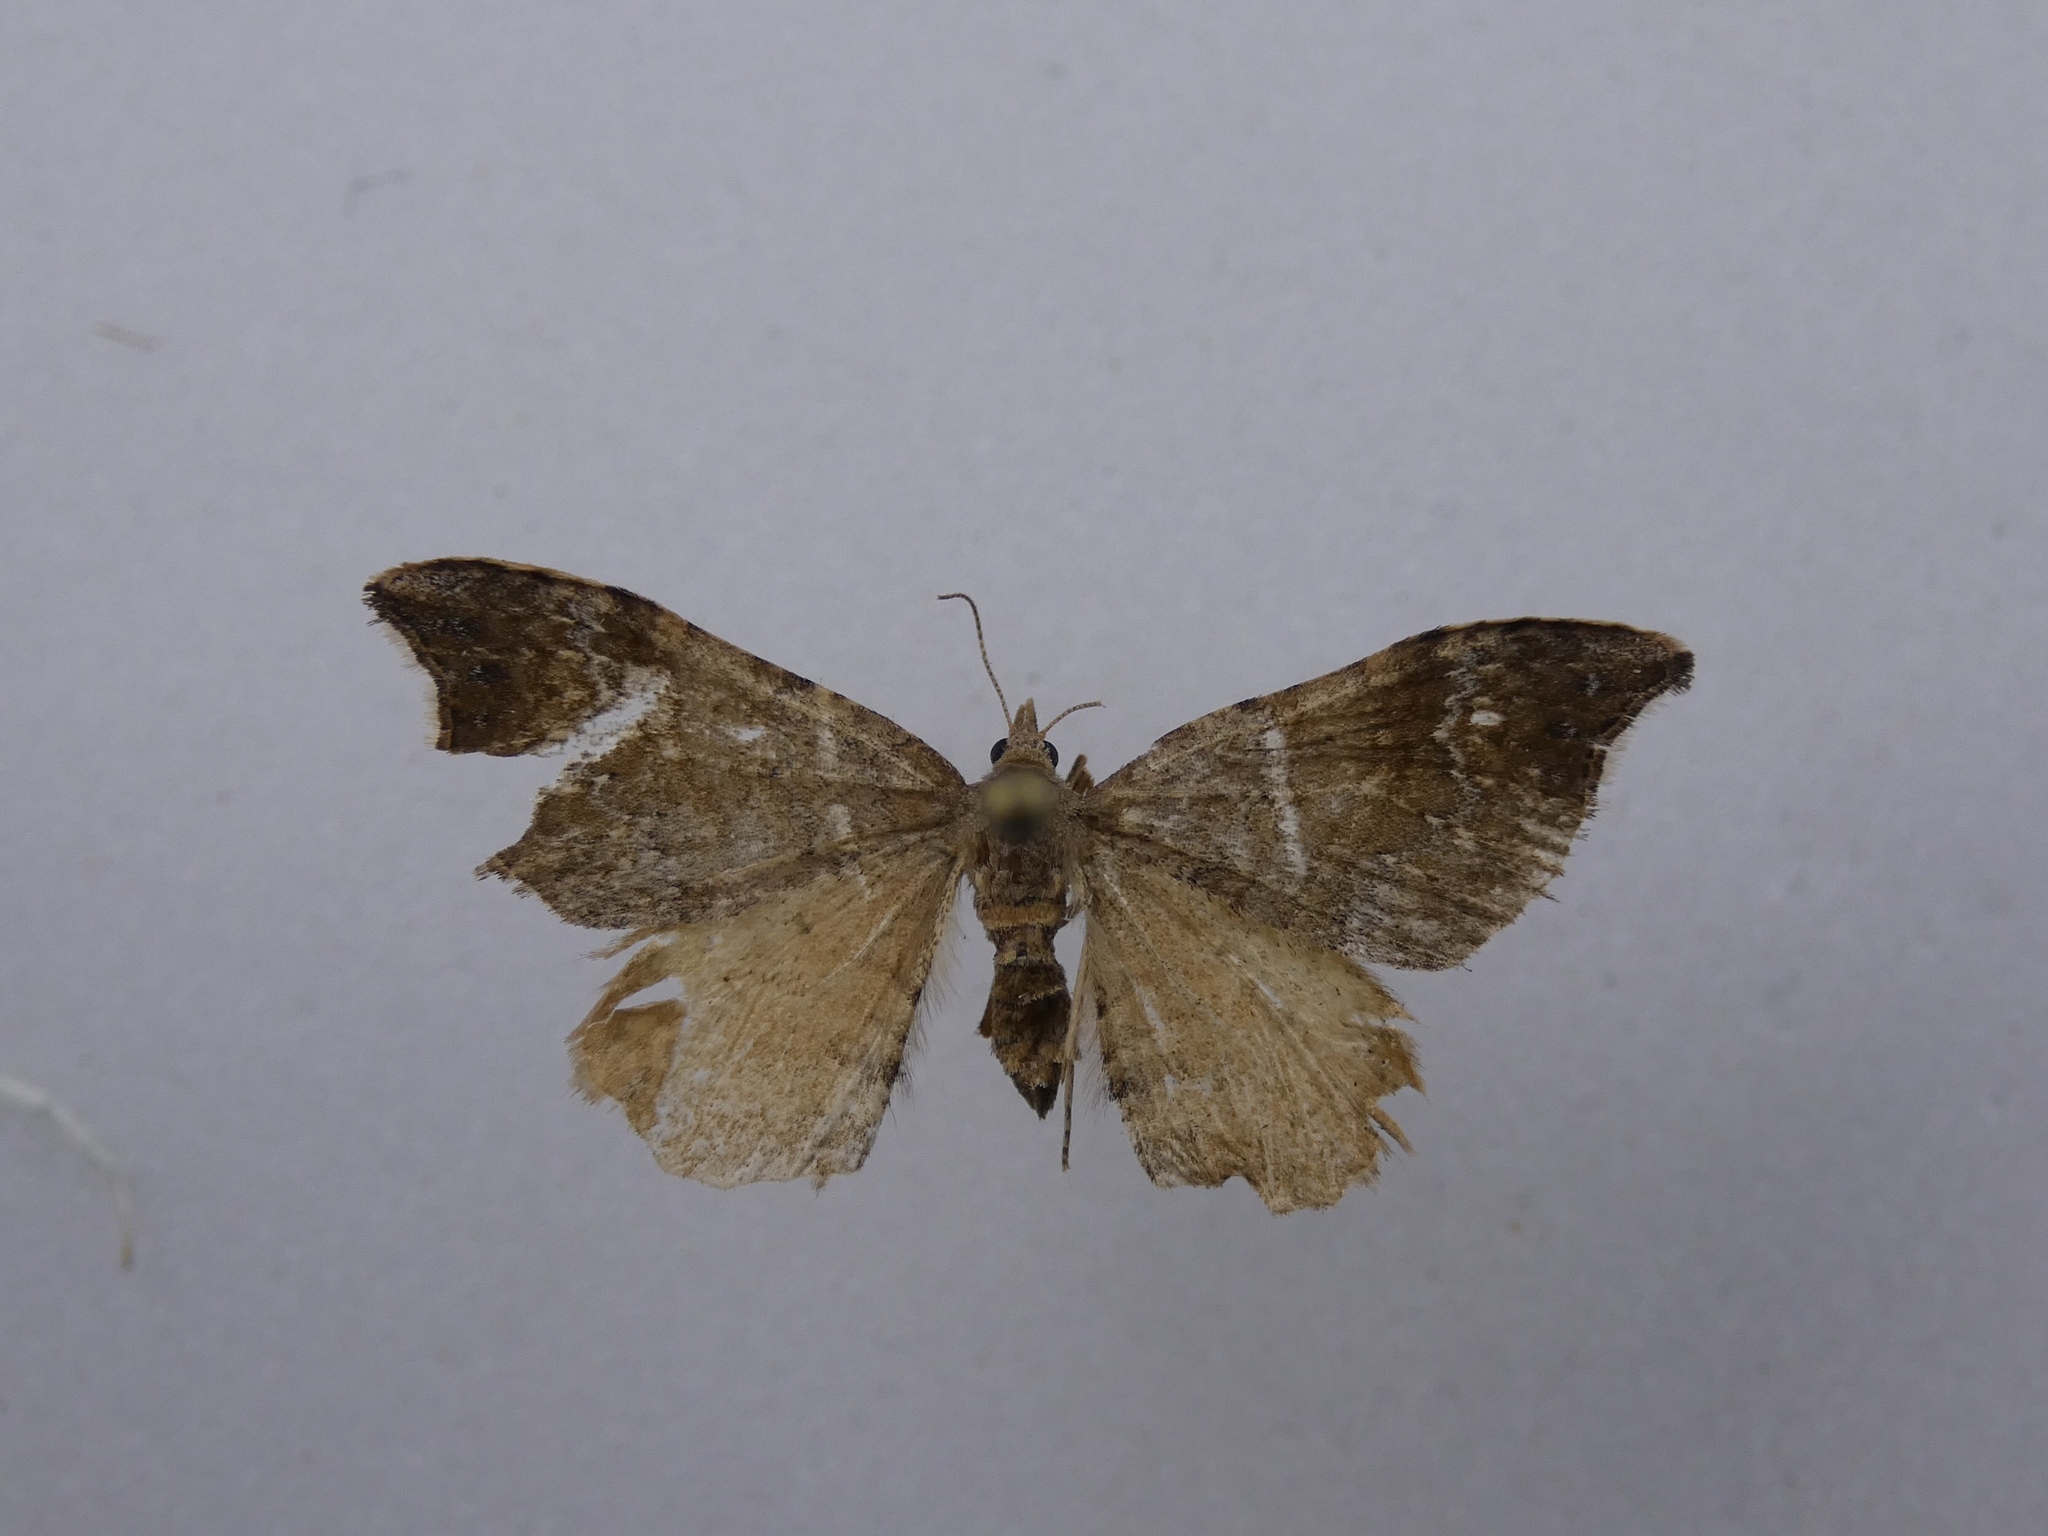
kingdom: Animalia
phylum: Arthropoda
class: Insecta
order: Lepidoptera
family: Geometridae
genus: Homodotis
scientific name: Homodotis megaspilata
